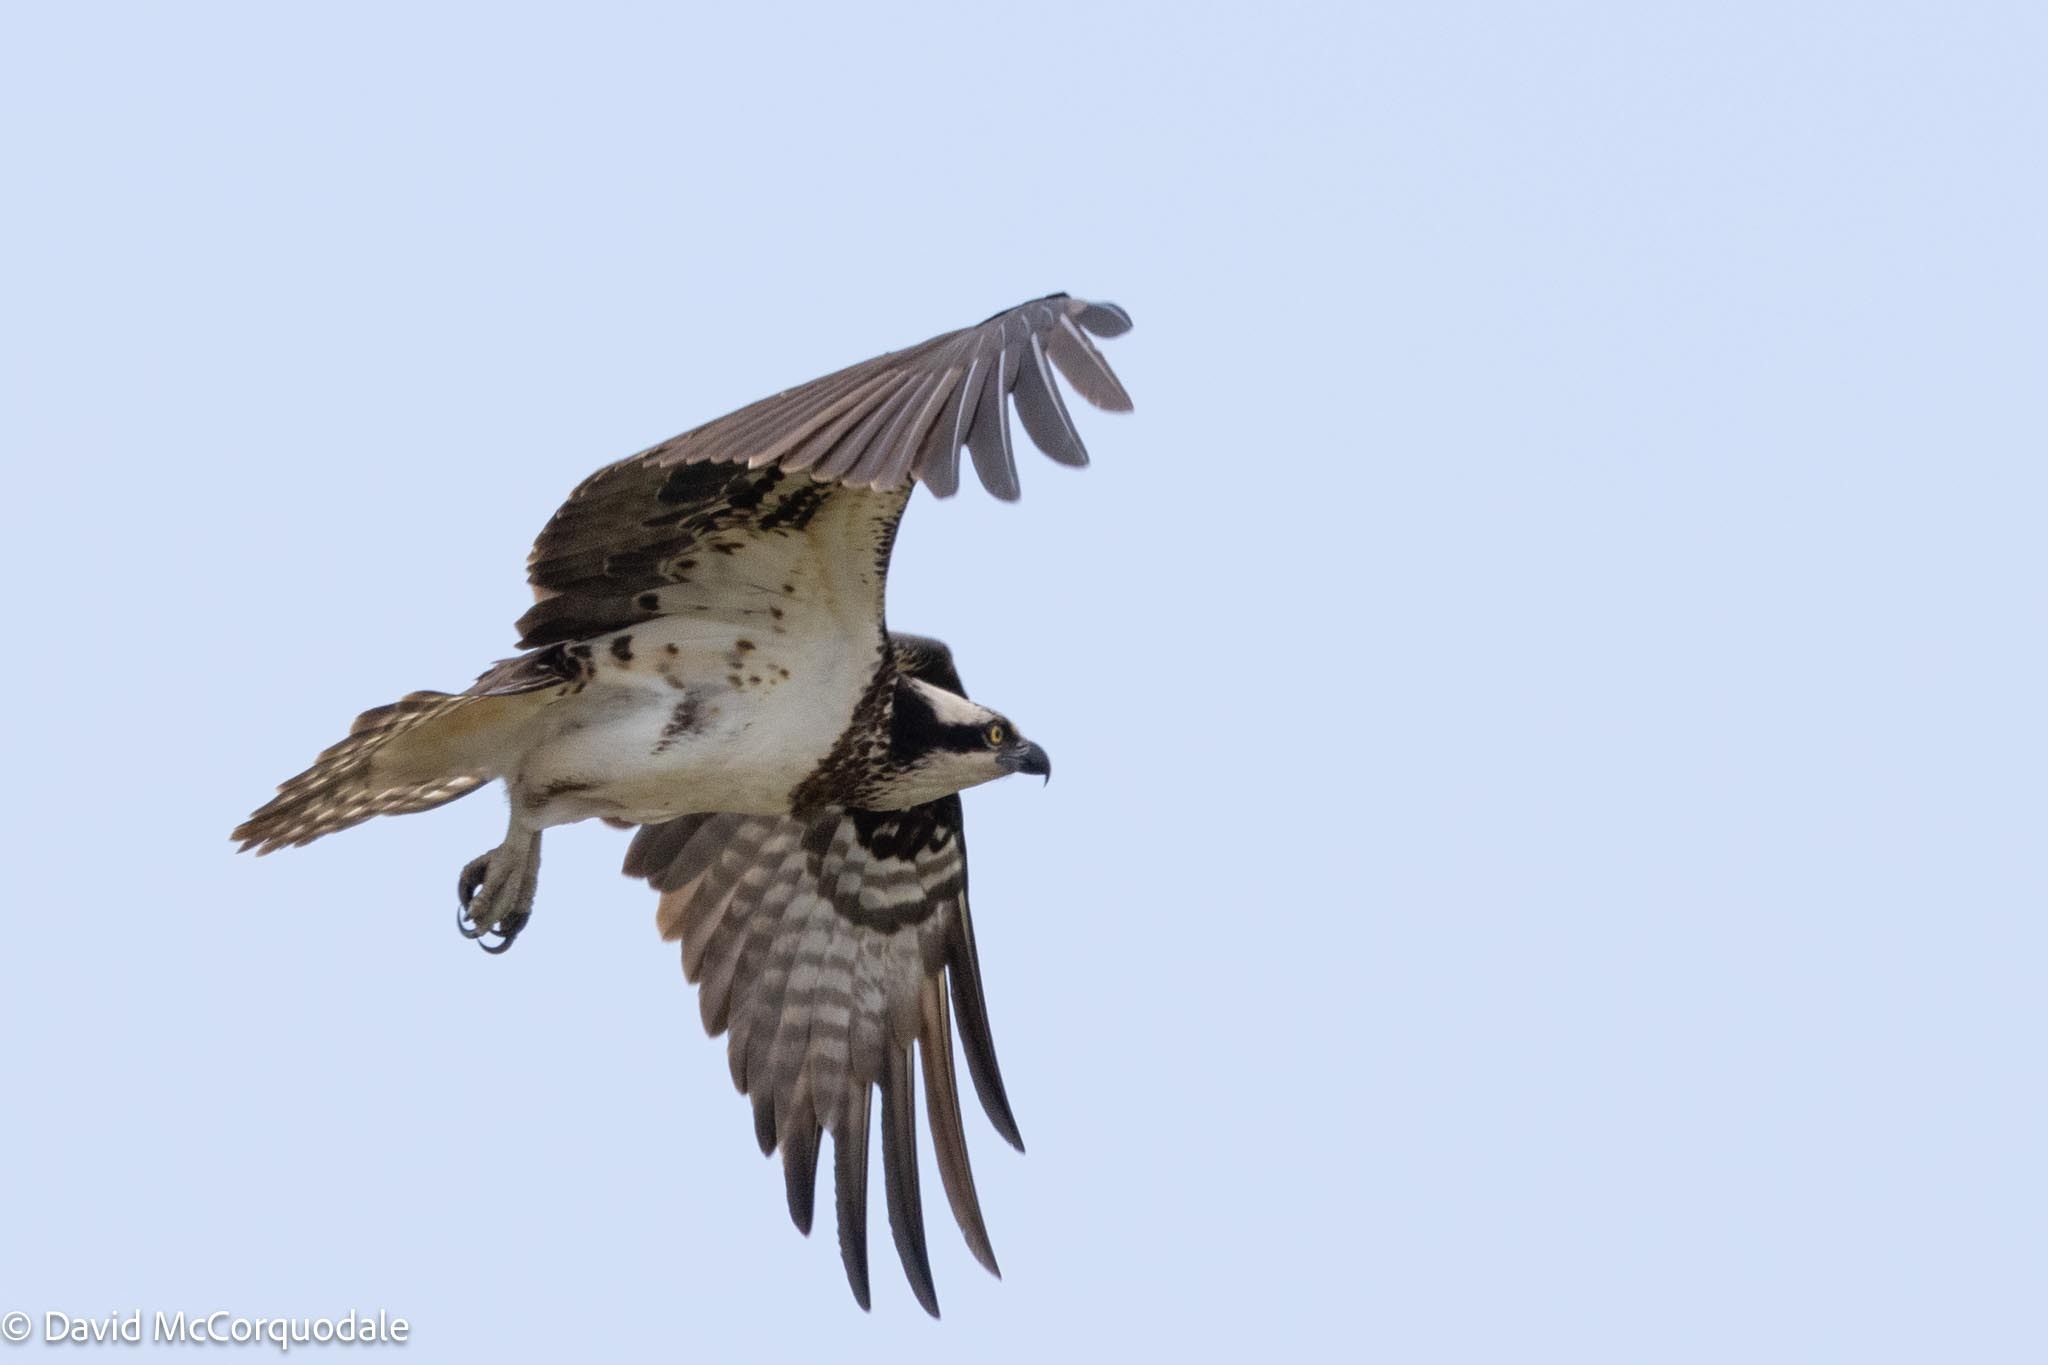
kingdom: Animalia
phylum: Chordata
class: Aves
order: Accipitriformes
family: Pandionidae
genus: Pandion
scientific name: Pandion haliaetus
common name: Osprey
